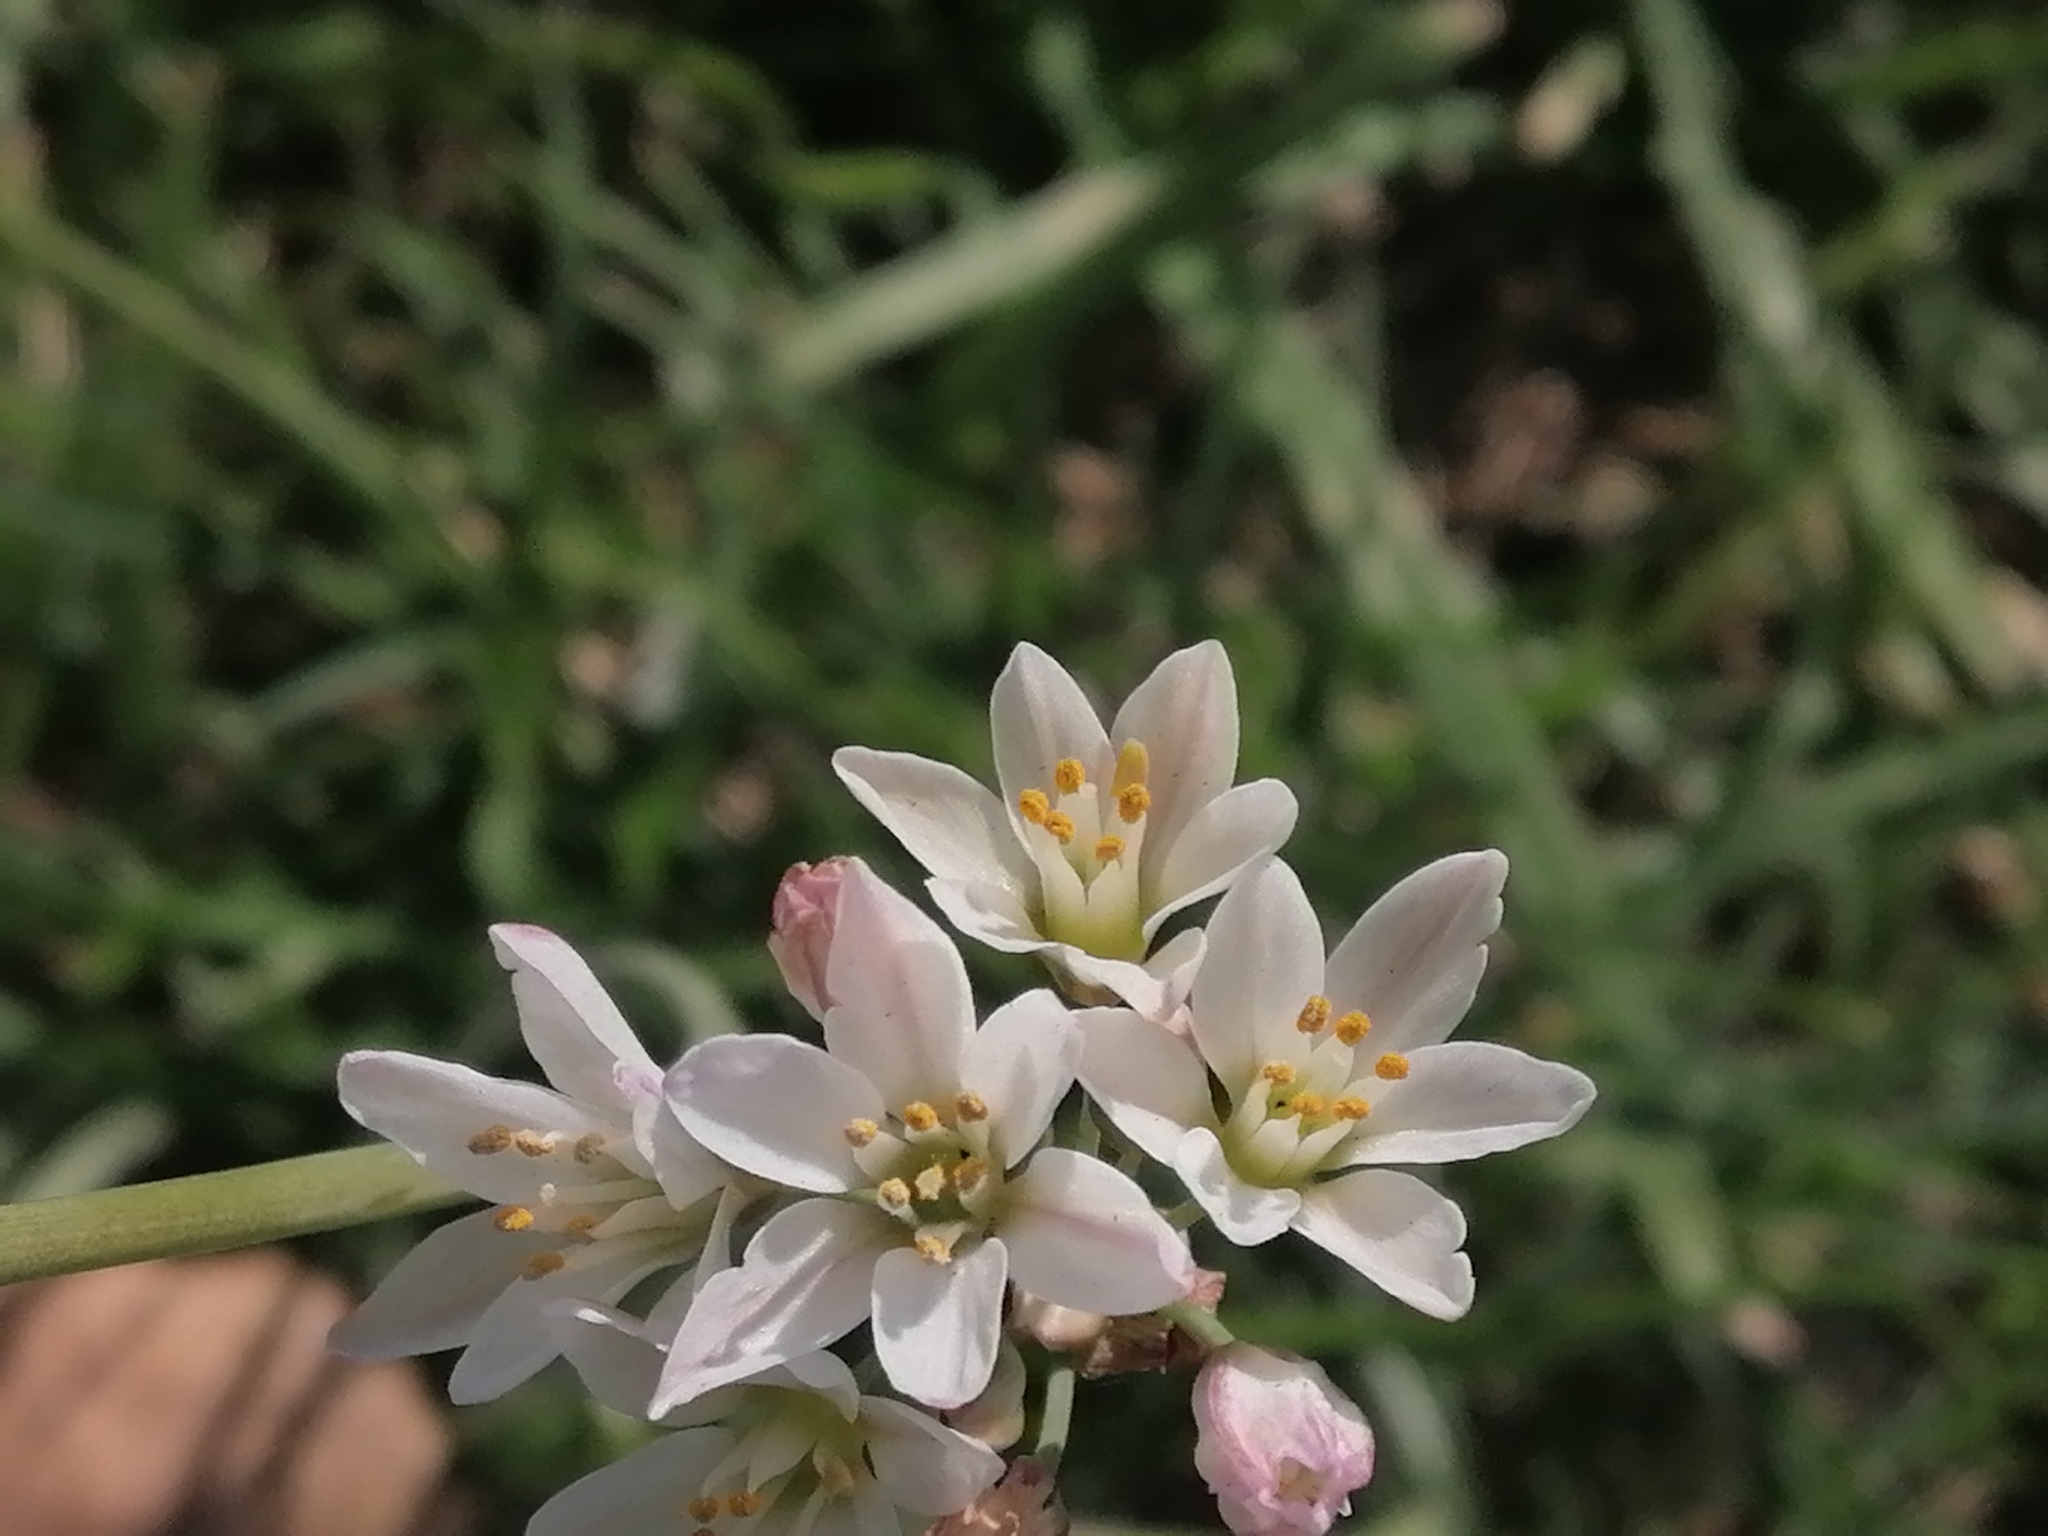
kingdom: Plantae
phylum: Tracheophyta
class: Liliopsida
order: Asparagales
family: Amaryllidaceae
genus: Nothoscordum
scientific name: Nothoscordum gracile
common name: Slender false garlic
